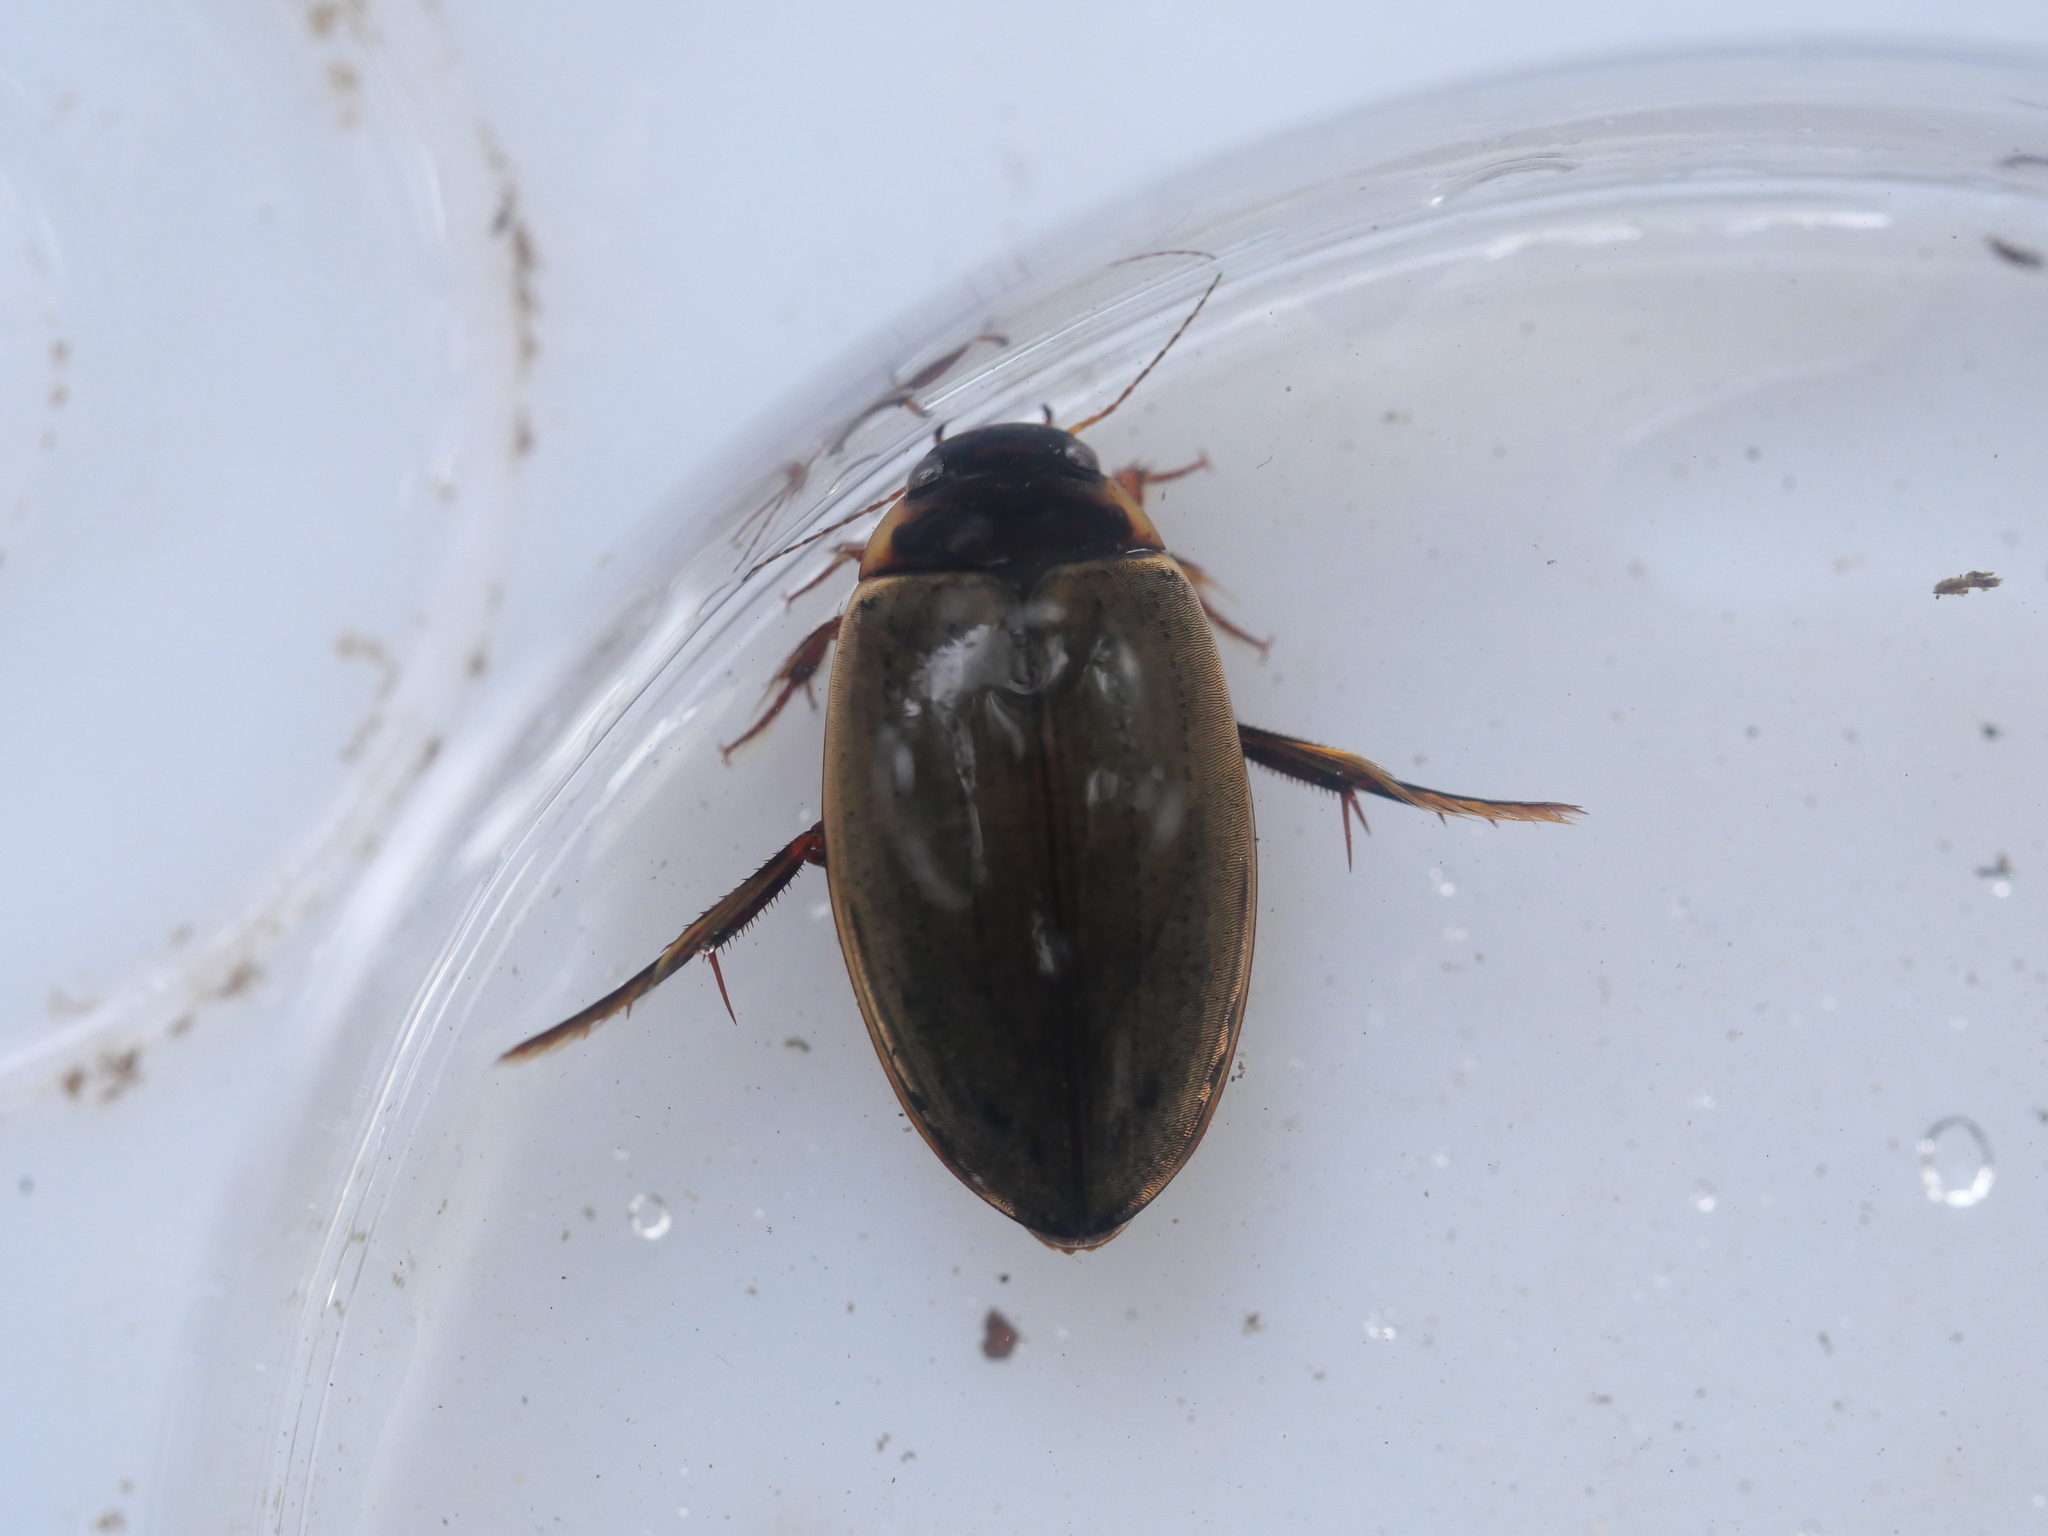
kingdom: Animalia
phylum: Arthropoda
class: Insecta
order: Coleoptera
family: Dytiscidae
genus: Colymbetes
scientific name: Colymbetes fuscus
